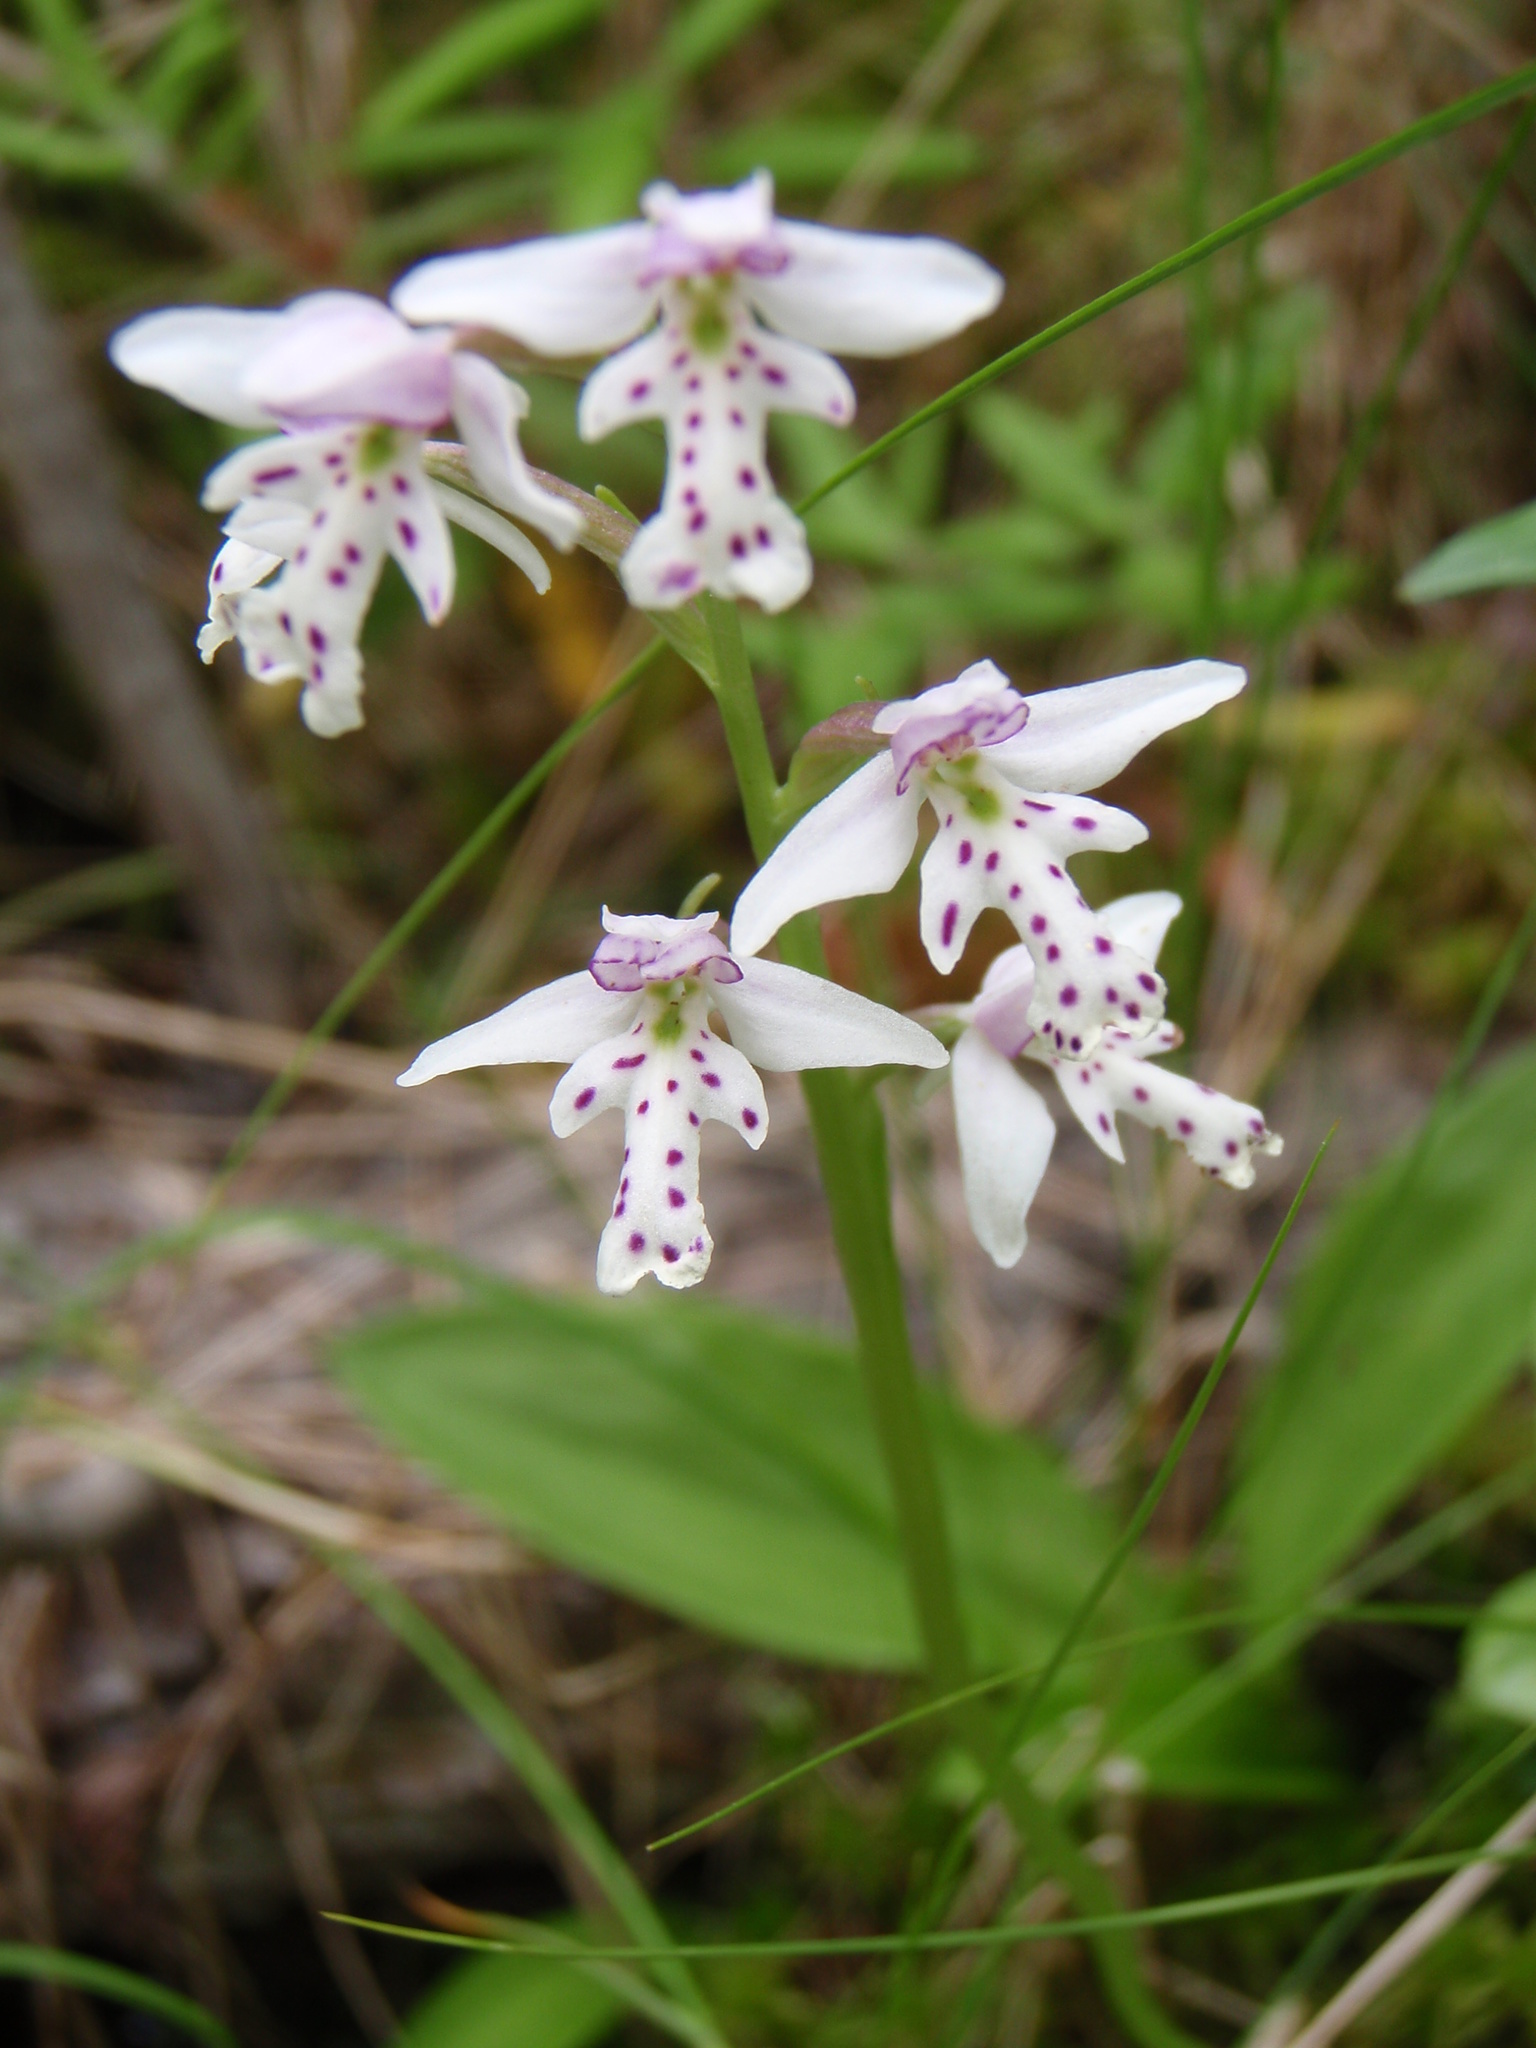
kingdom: Plantae
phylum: Tracheophyta
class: Liliopsida
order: Asparagales
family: Orchidaceae
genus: Galearis
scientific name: Galearis rotundifolia
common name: One-leaved orchis
